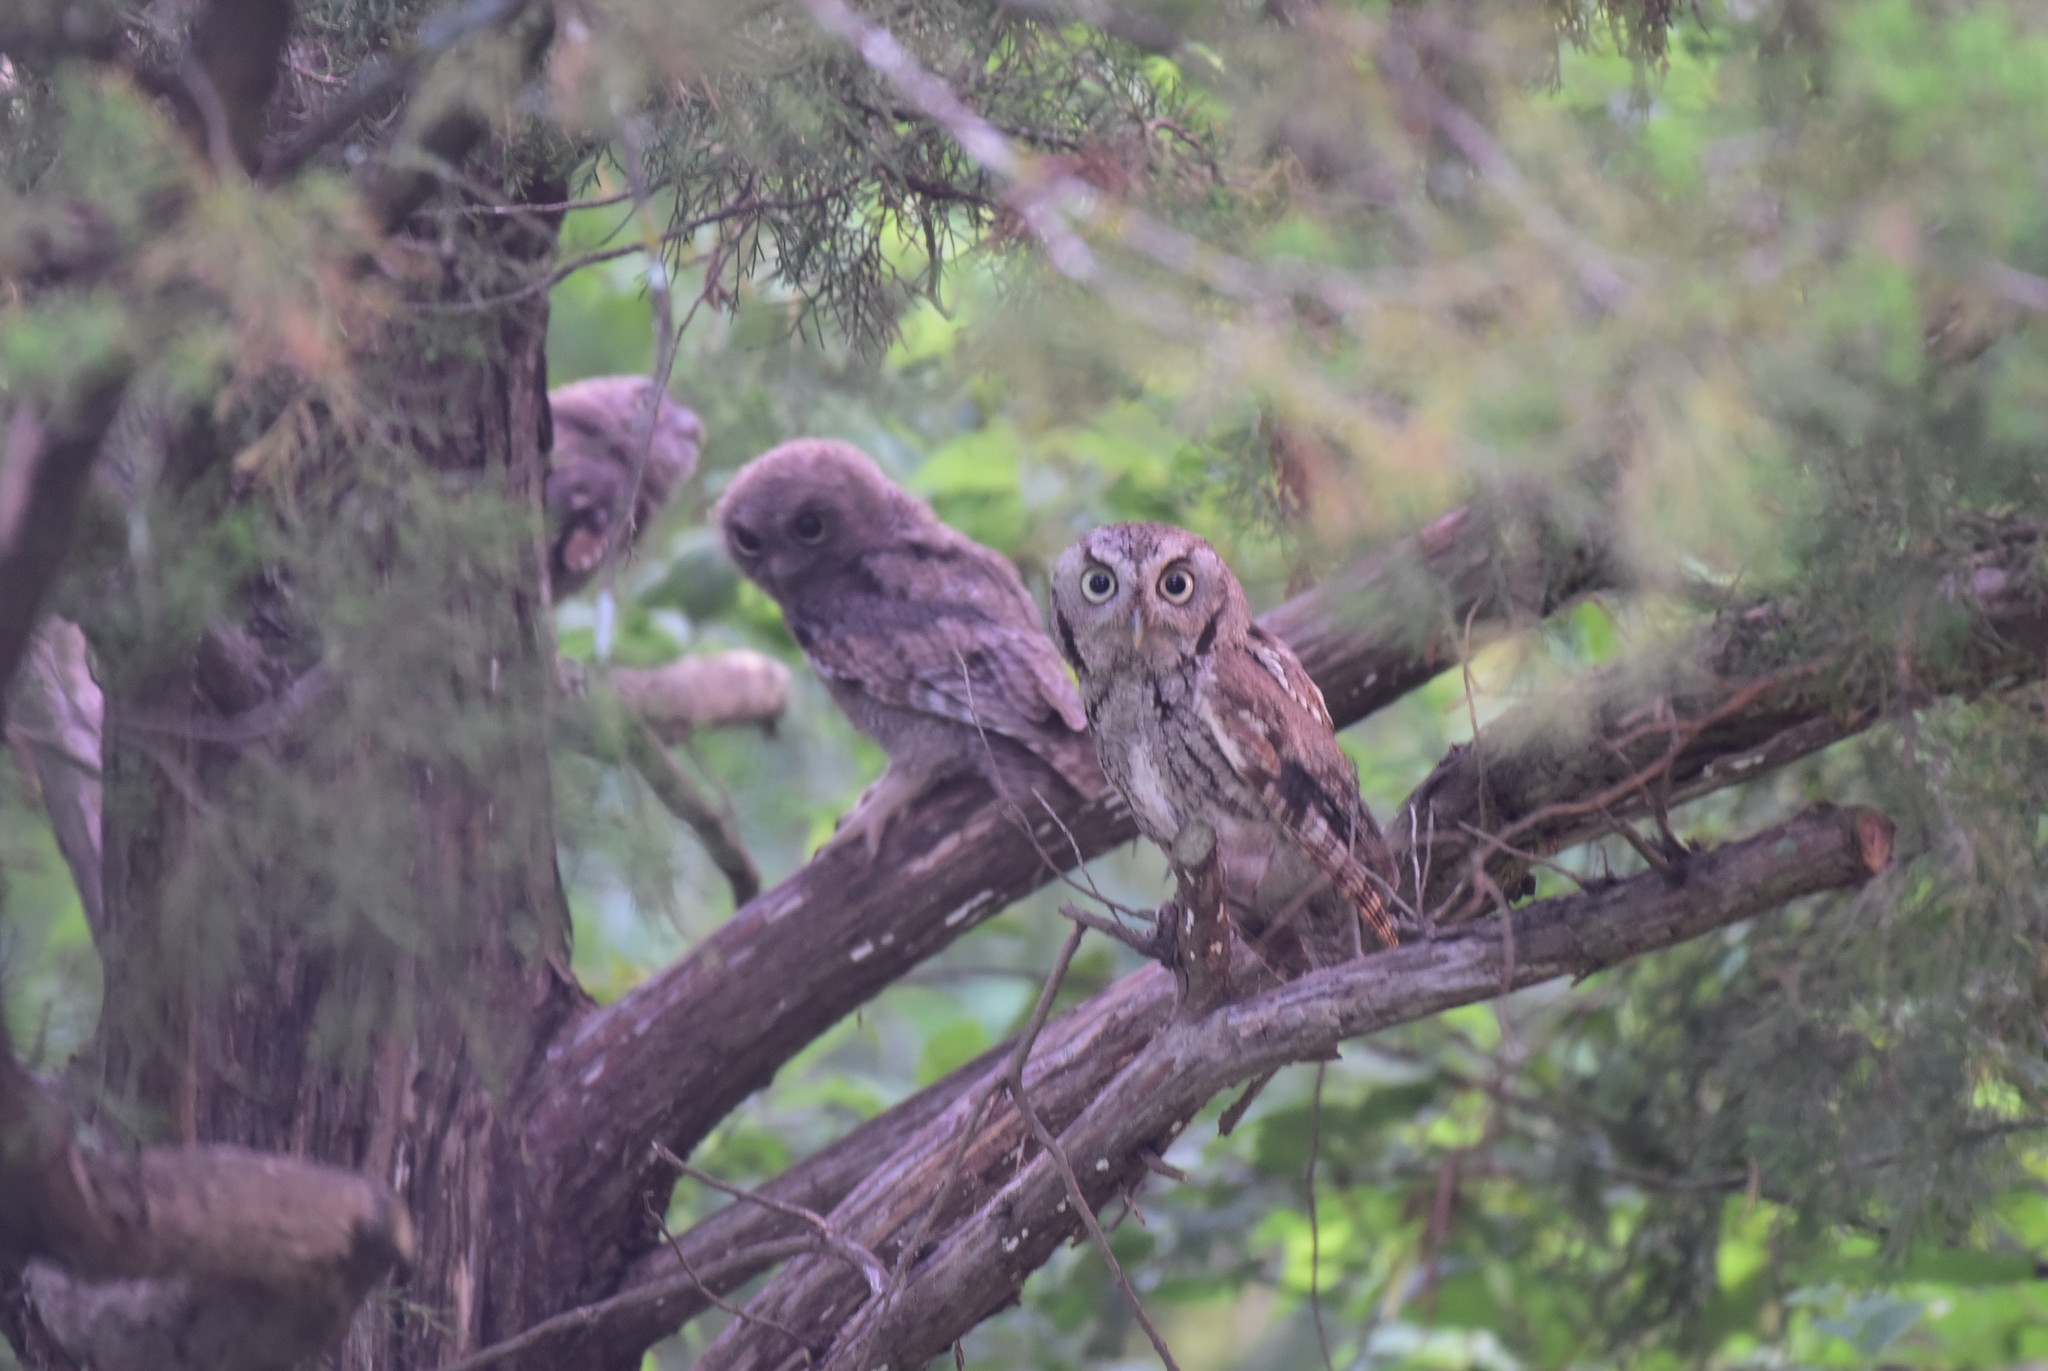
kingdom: Animalia
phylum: Chordata
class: Aves
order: Strigiformes
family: Strigidae
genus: Megascops
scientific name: Megascops asio
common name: Eastern screech-owl
